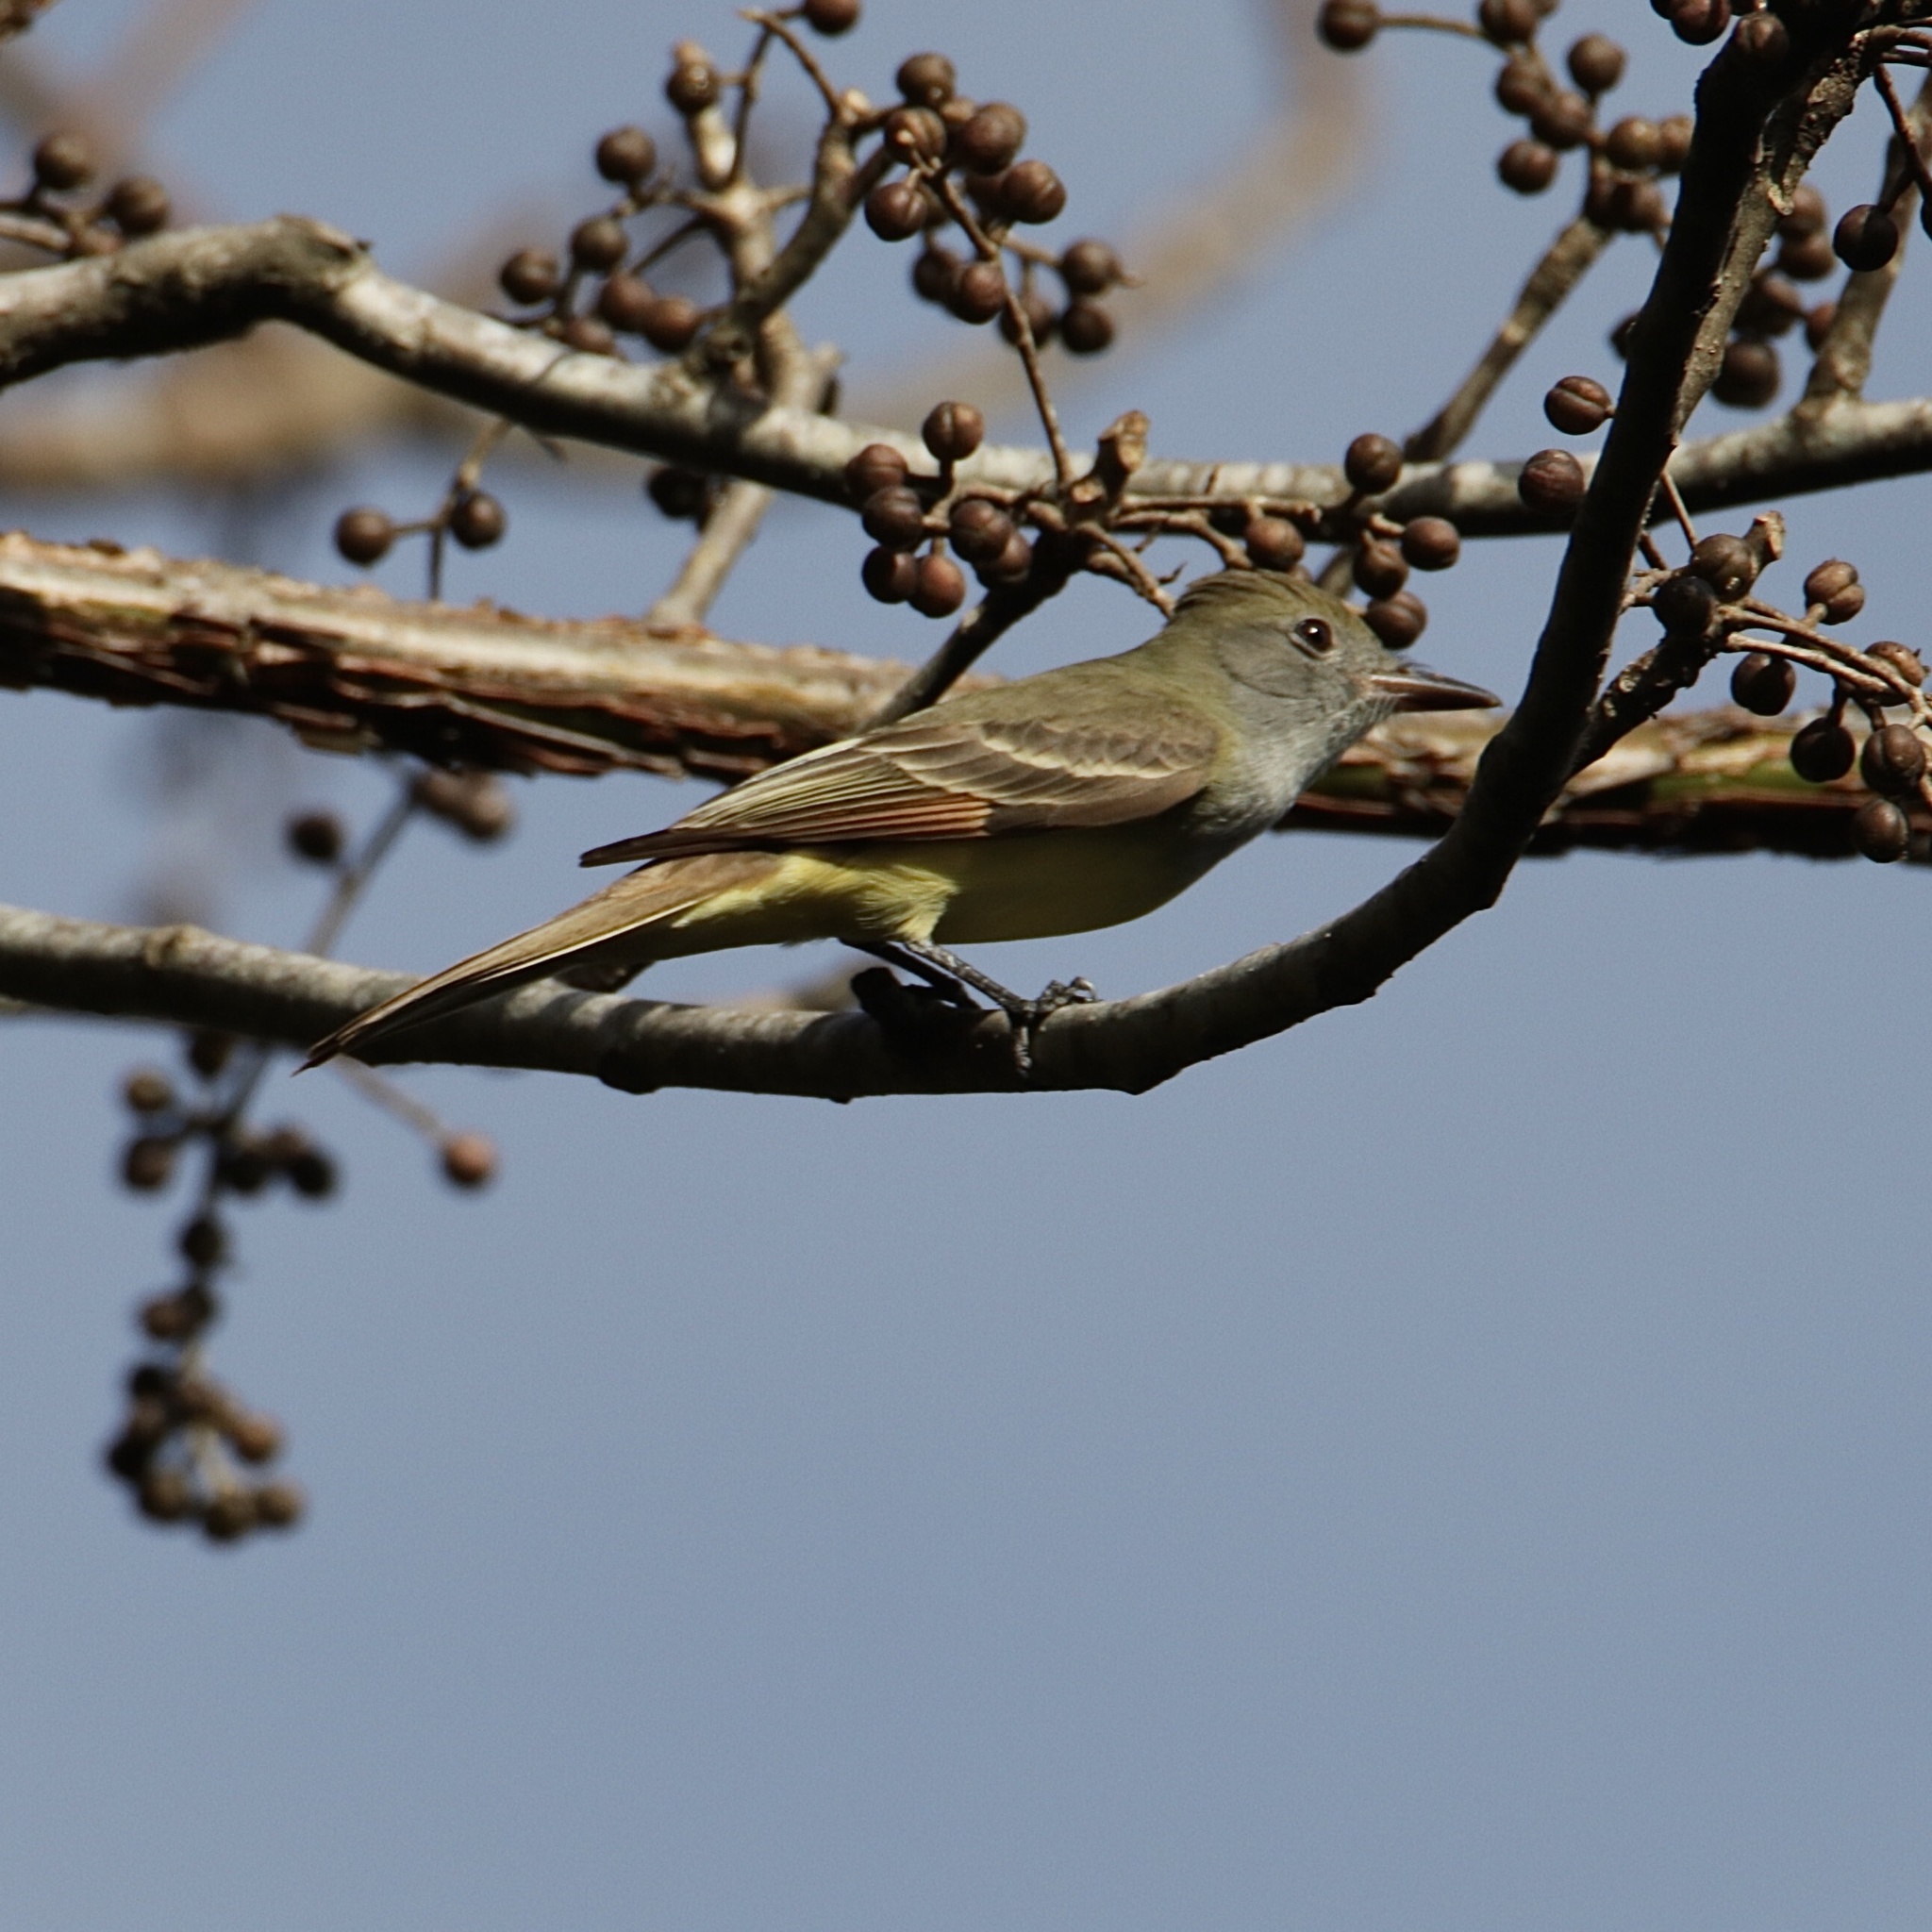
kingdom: Animalia
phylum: Chordata
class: Aves
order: Passeriformes
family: Tyrannidae
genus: Myiarchus
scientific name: Myiarchus crinitus
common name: Great crested flycatcher
